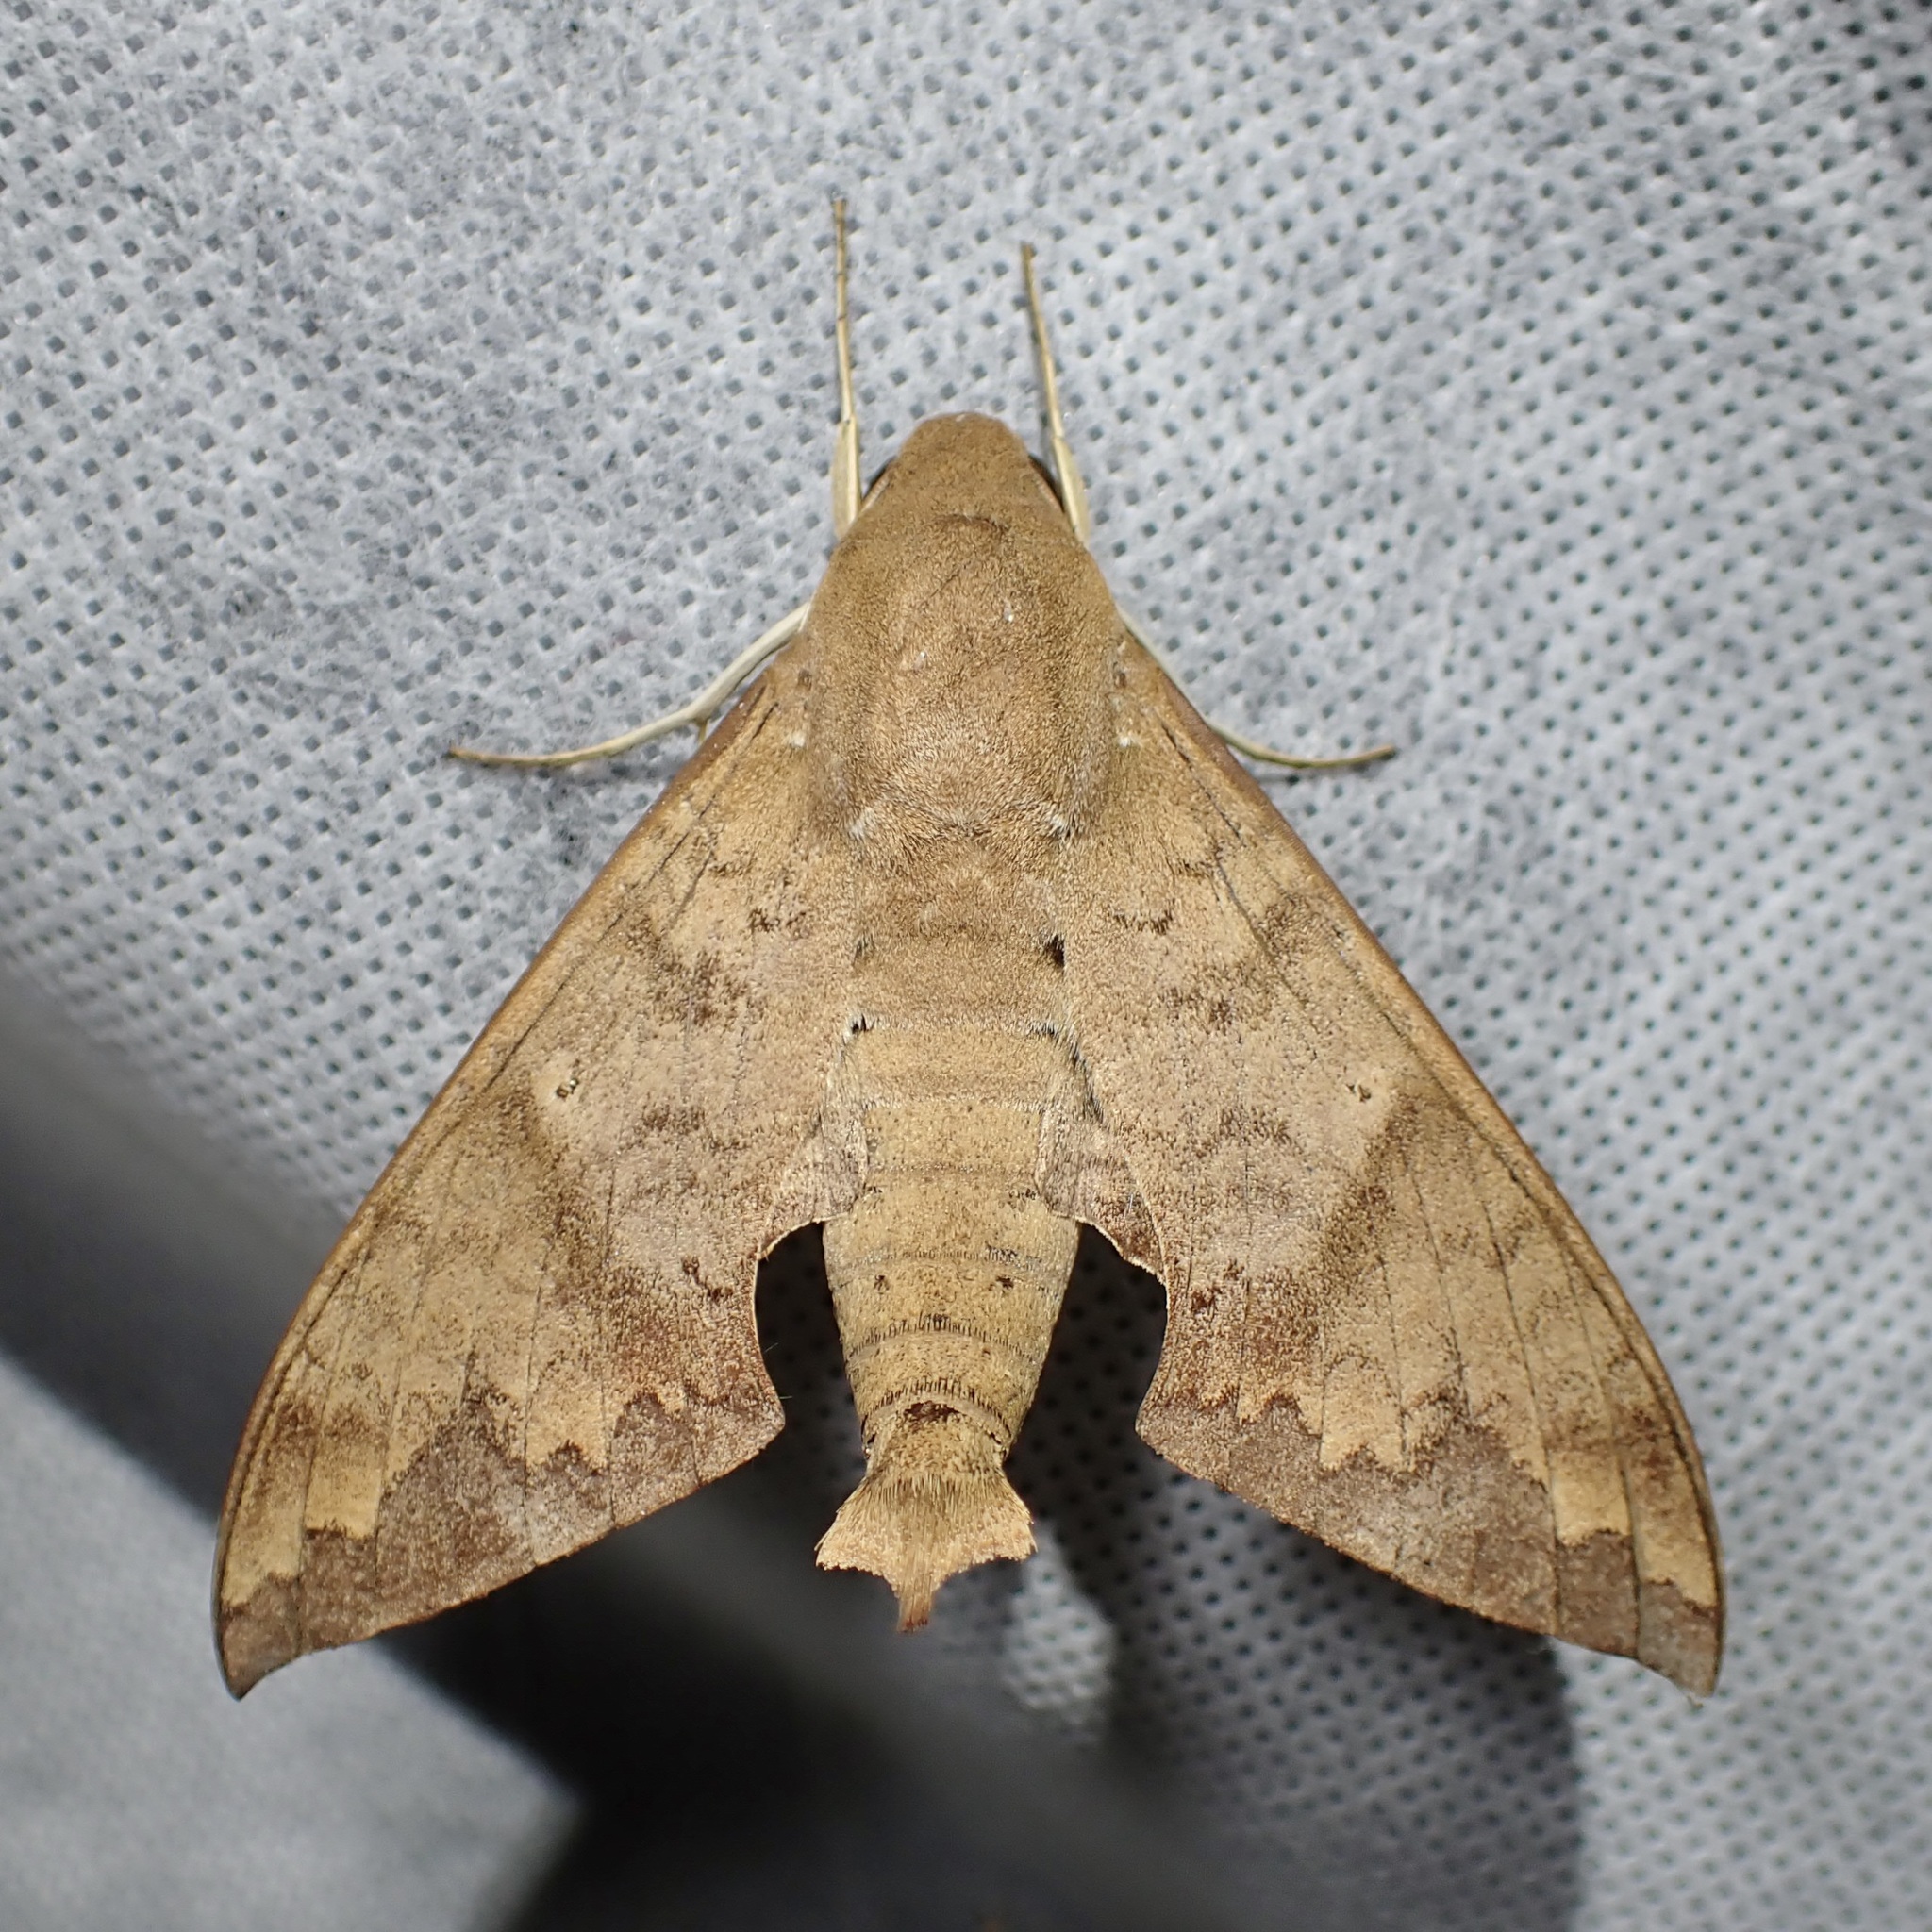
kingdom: Animalia
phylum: Arthropoda
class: Insecta
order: Lepidoptera
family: Sphingidae
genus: Pachylioides
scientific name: Pachylioides resumens
